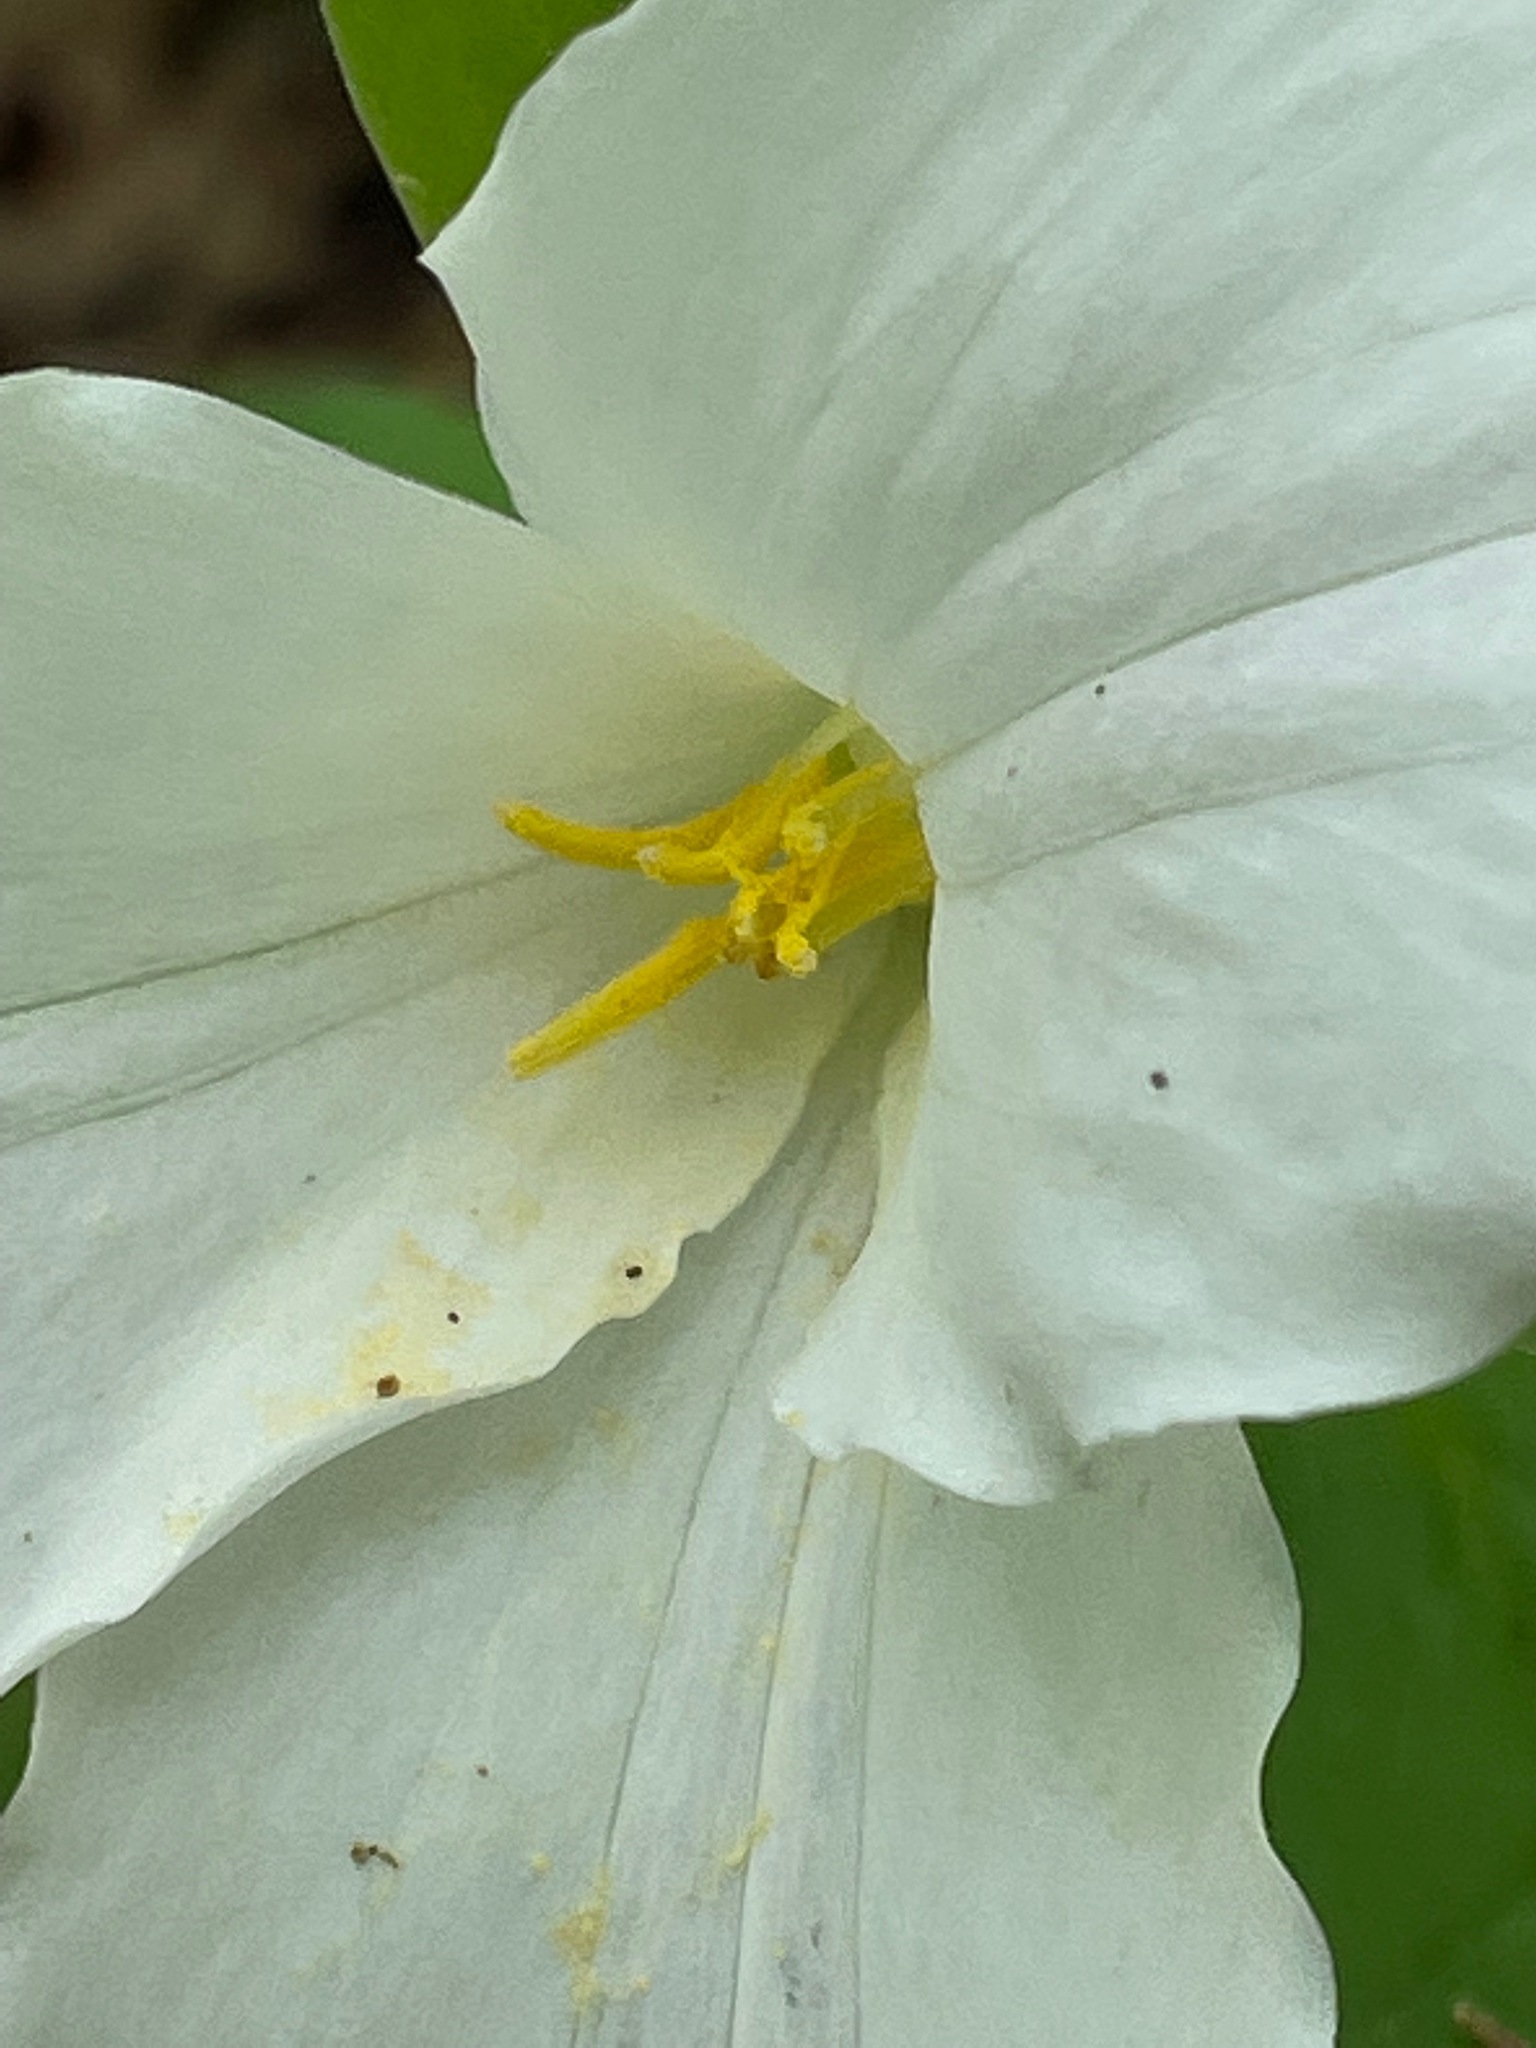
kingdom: Plantae
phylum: Tracheophyta
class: Liliopsida
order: Liliales
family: Melanthiaceae
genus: Trillium
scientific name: Trillium grandiflorum
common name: Great white trillium
